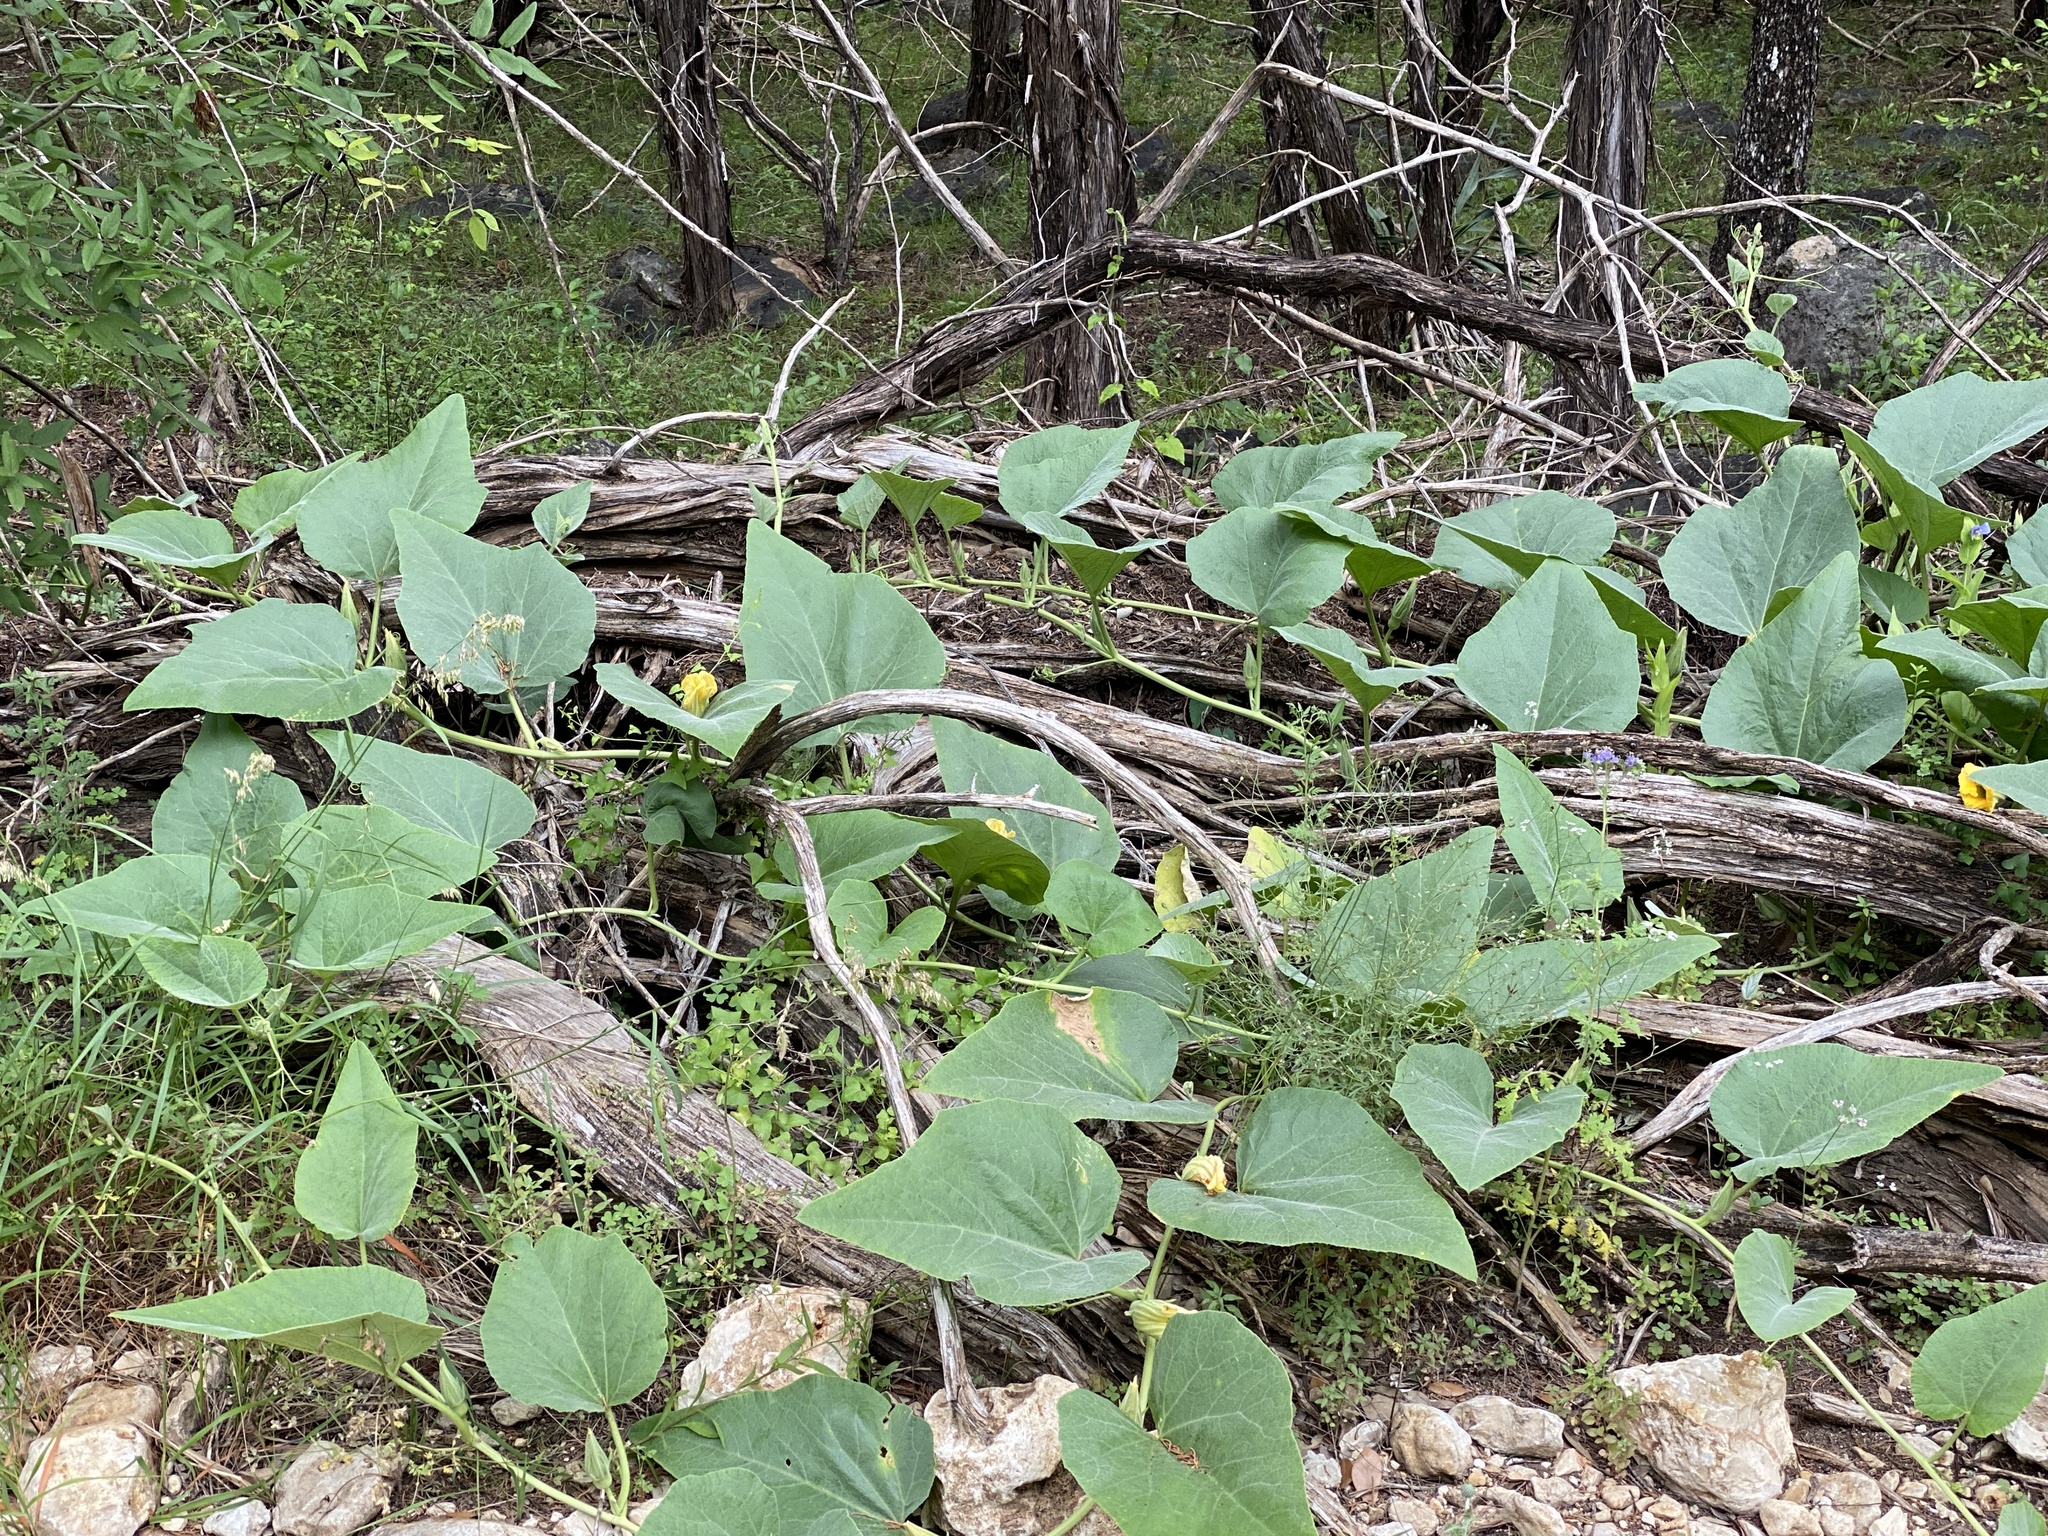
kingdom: Plantae
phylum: Tracheophyta
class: Magnoliopsida
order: Cucurbitales
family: Cucurbitaceae
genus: Cucurbita
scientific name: Cucurbita foetidissima
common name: Buffalo gourd
